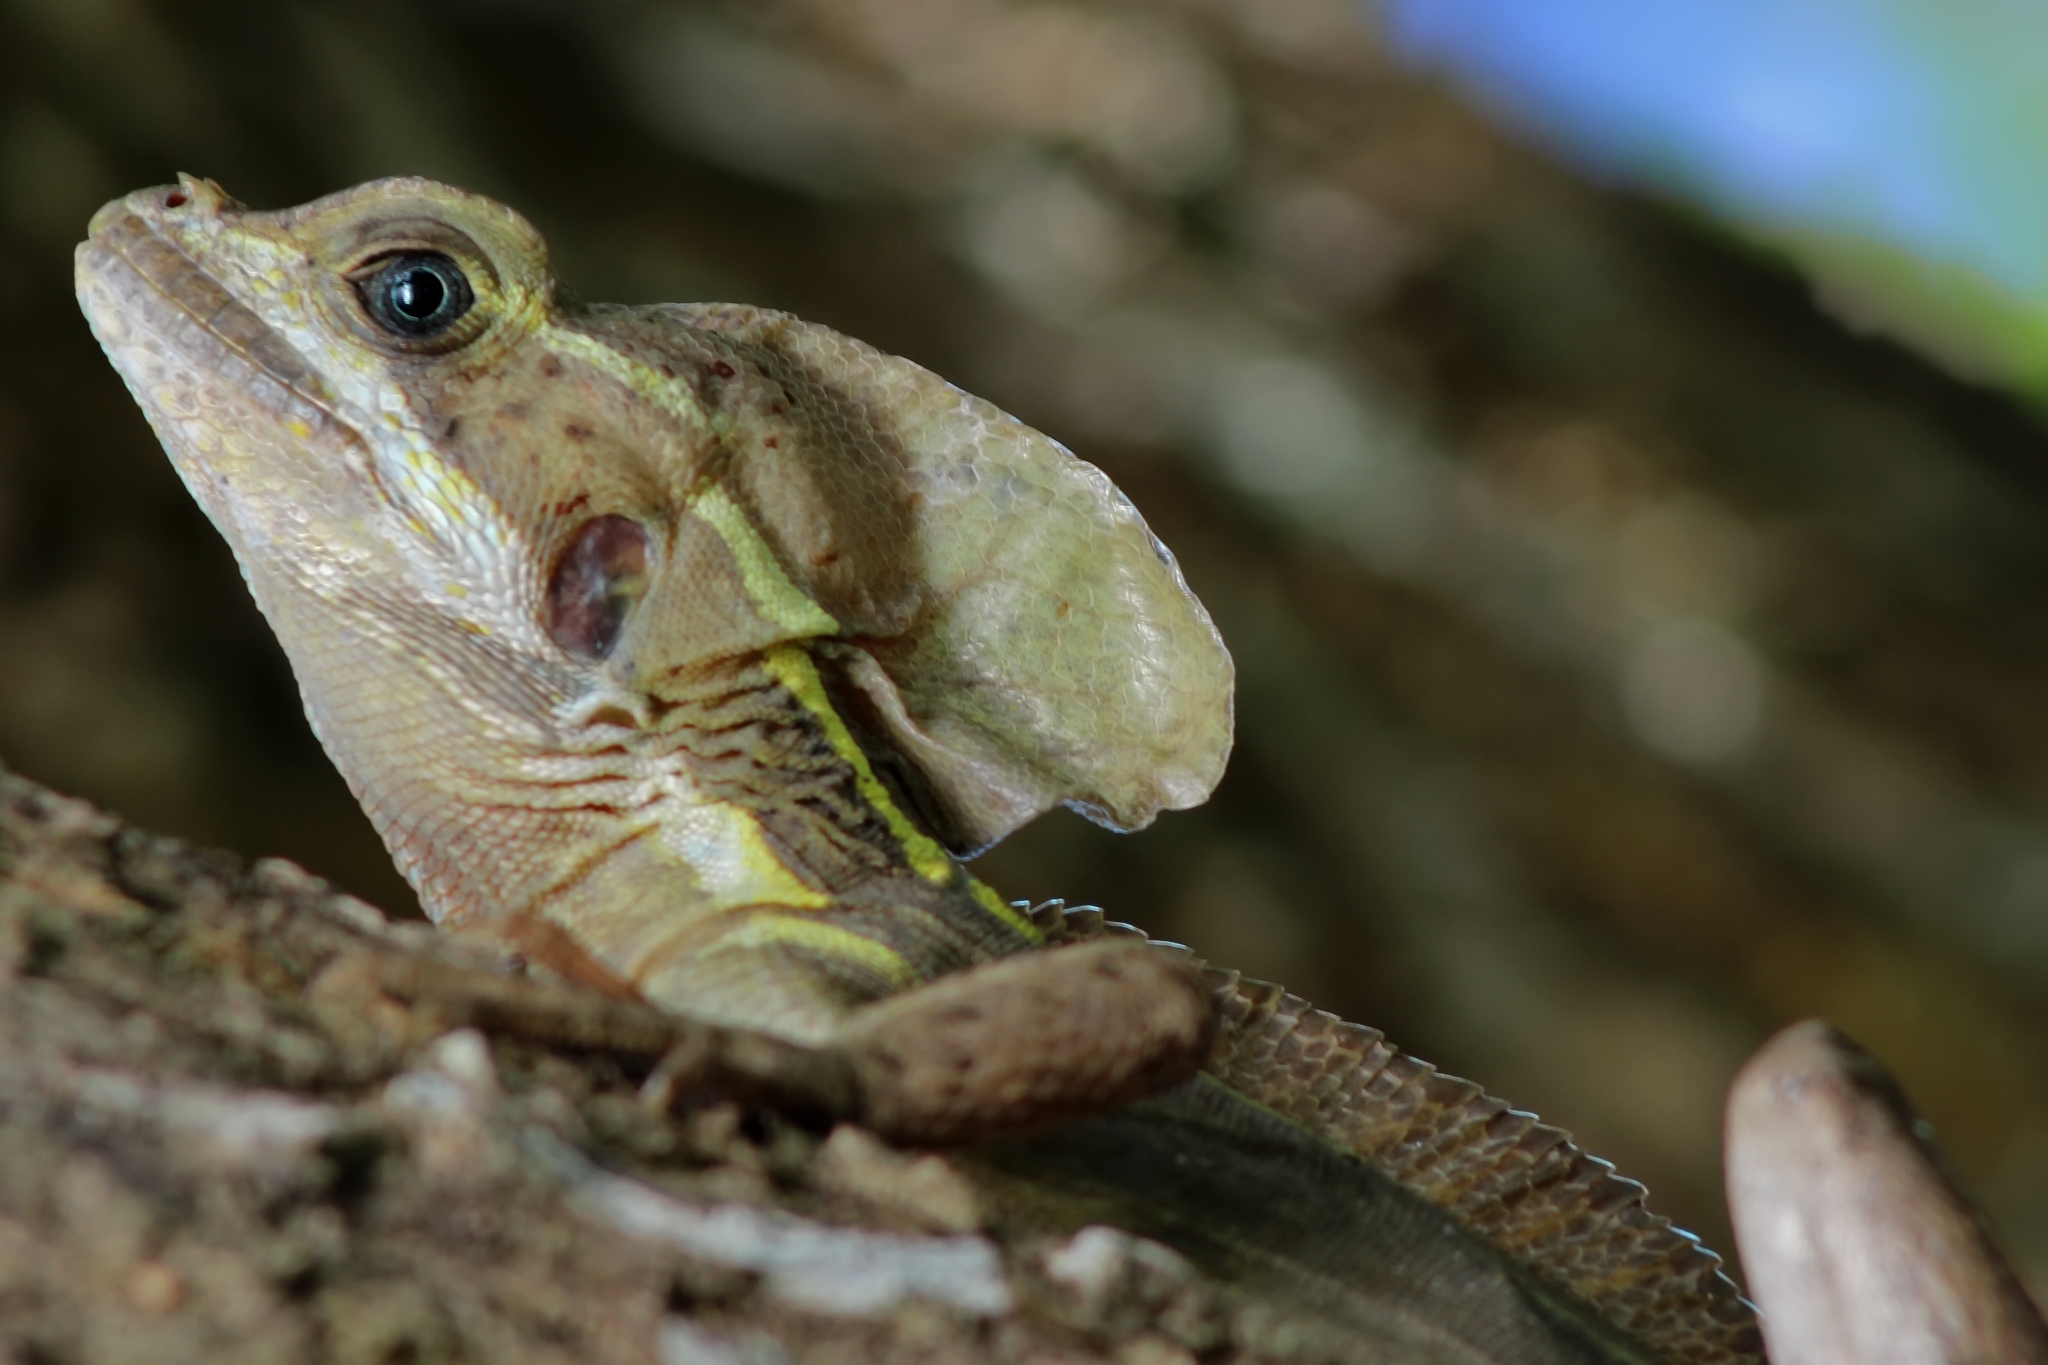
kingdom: Animalia
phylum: Chordata
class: Squamata
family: Corytophanidae
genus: Basiliscus
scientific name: Basiliscus vittatus
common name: Brown basilisk
